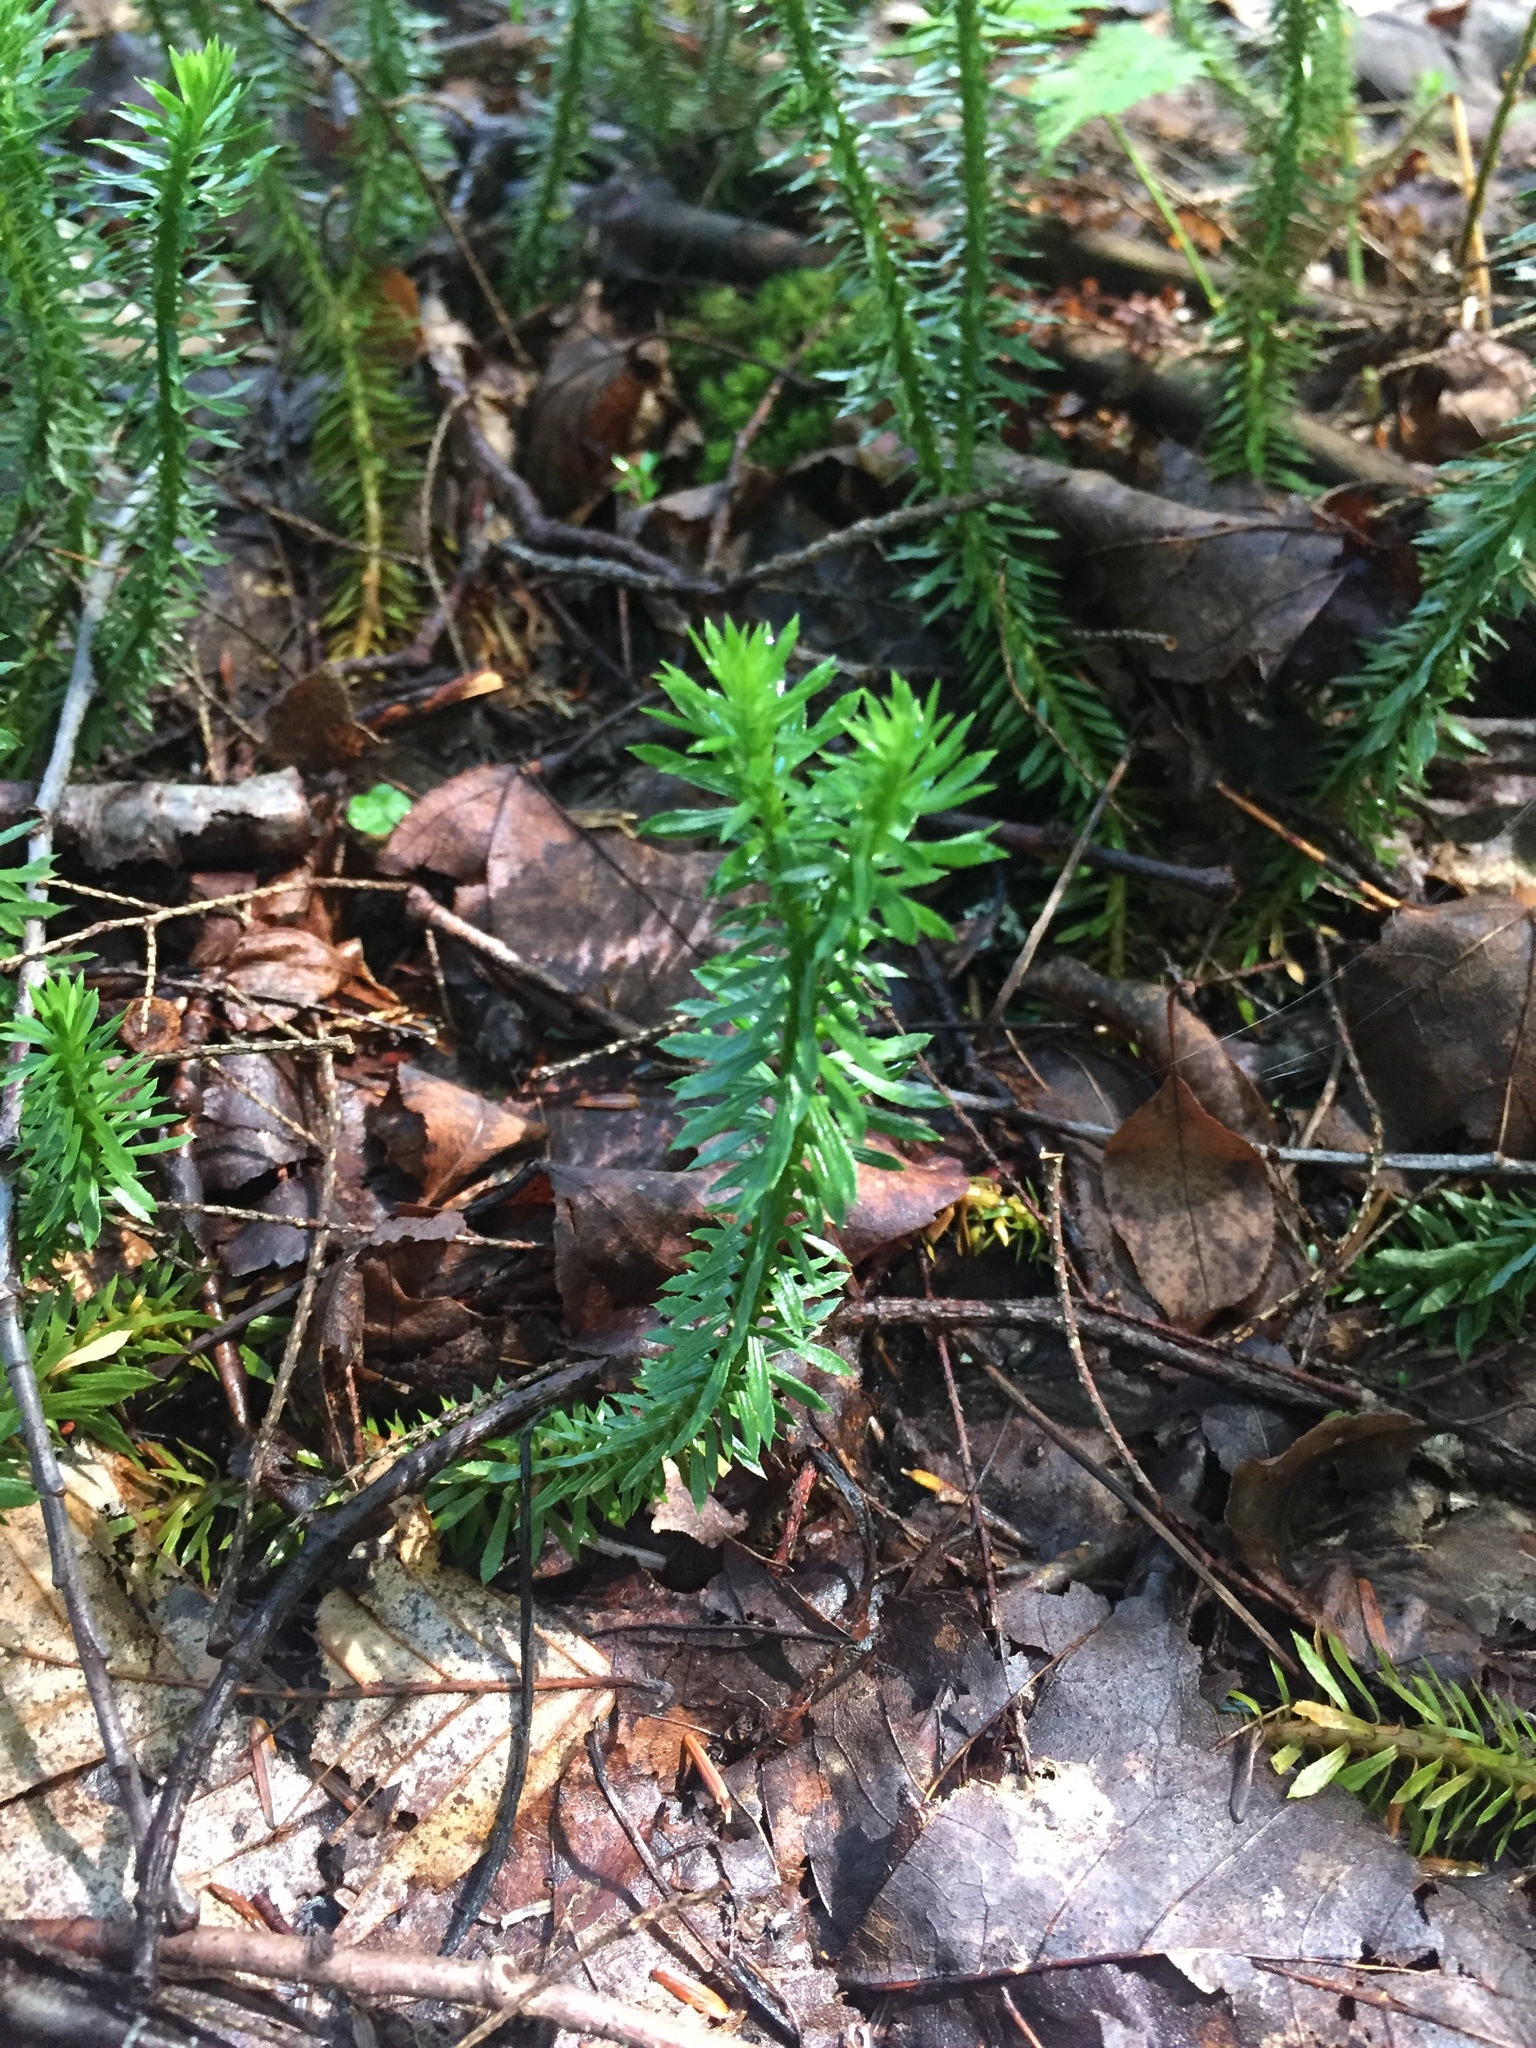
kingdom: Plantae
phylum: Tracheophyta
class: Lycopodiopsida
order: Lycopodiales
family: Lycopodiaceae
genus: Huperzia
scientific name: Huperzia lucidula
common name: Shining clubmoss
